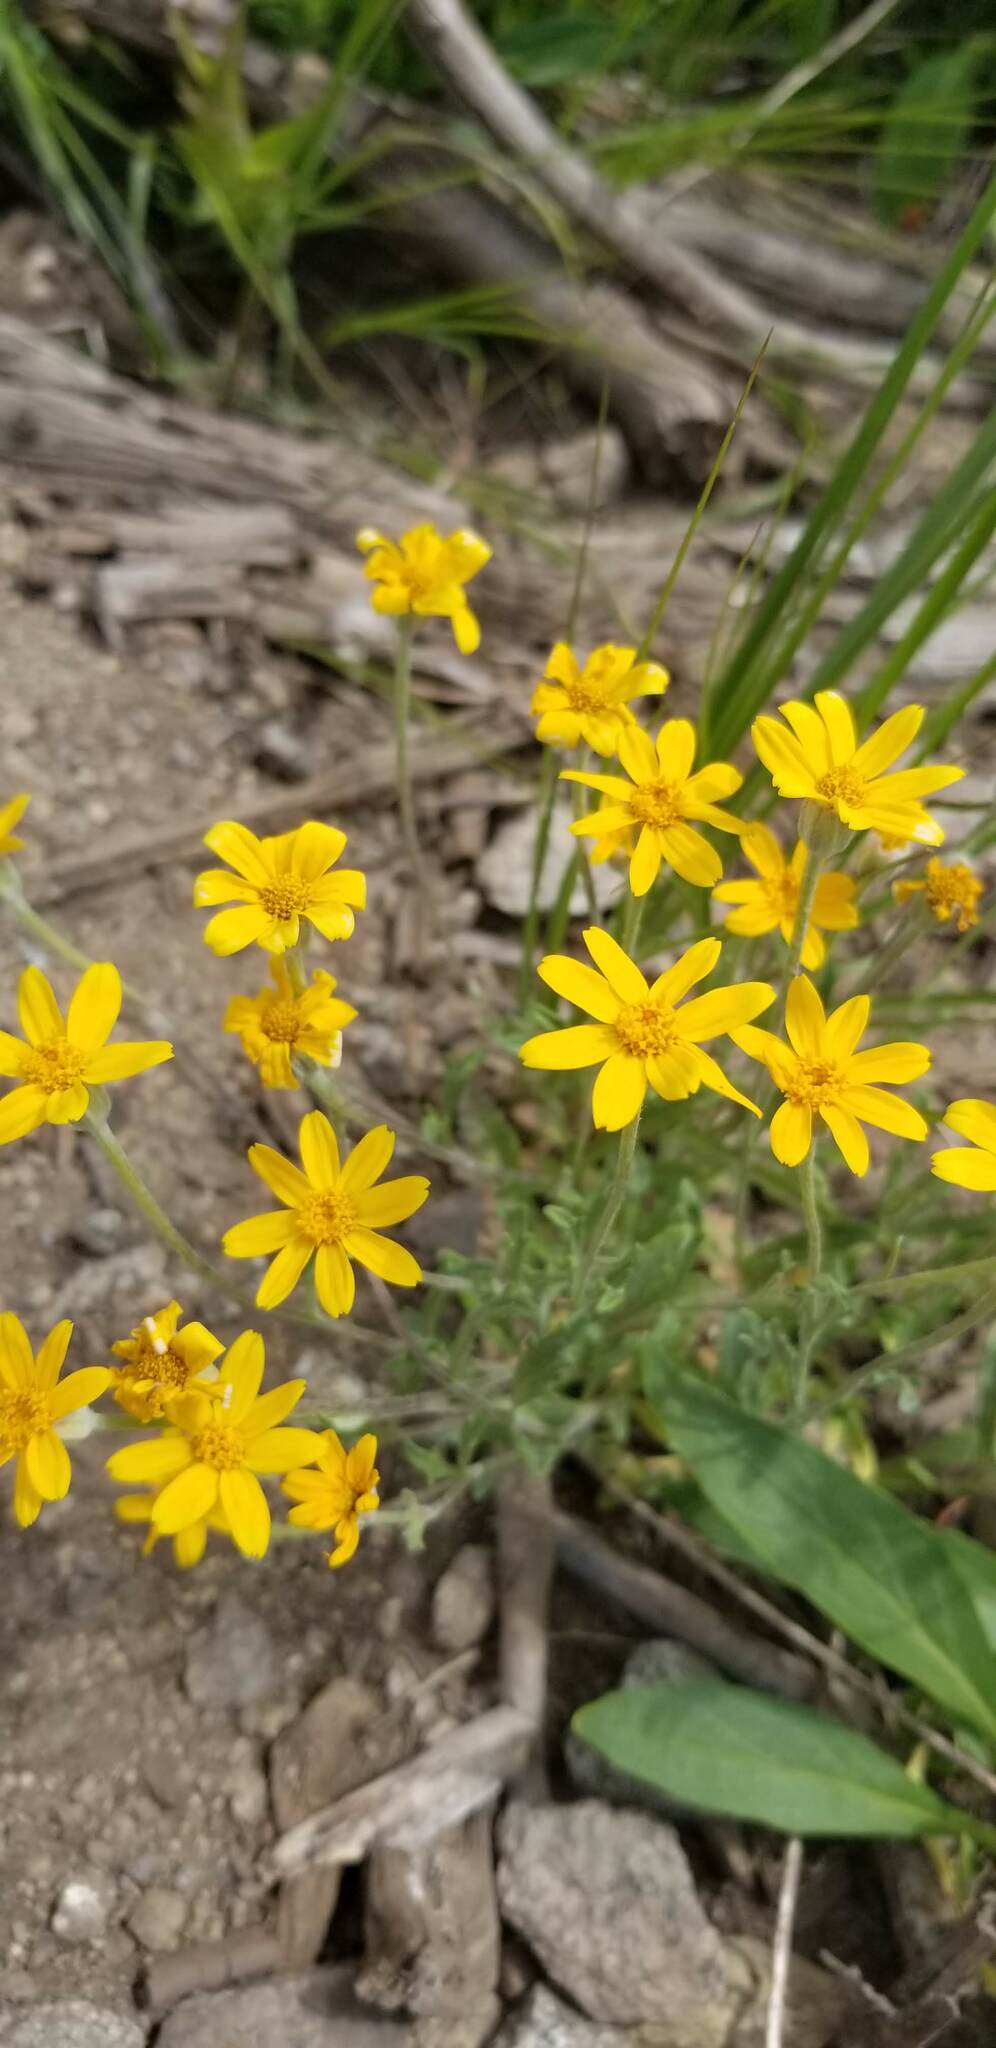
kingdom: Plantae
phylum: Tracheophyta
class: Magnoliopsida
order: Asterales
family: Asteraceae
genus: Eriophyllum
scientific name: Eriophyllum lanatum
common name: Common woolly-sunflower
